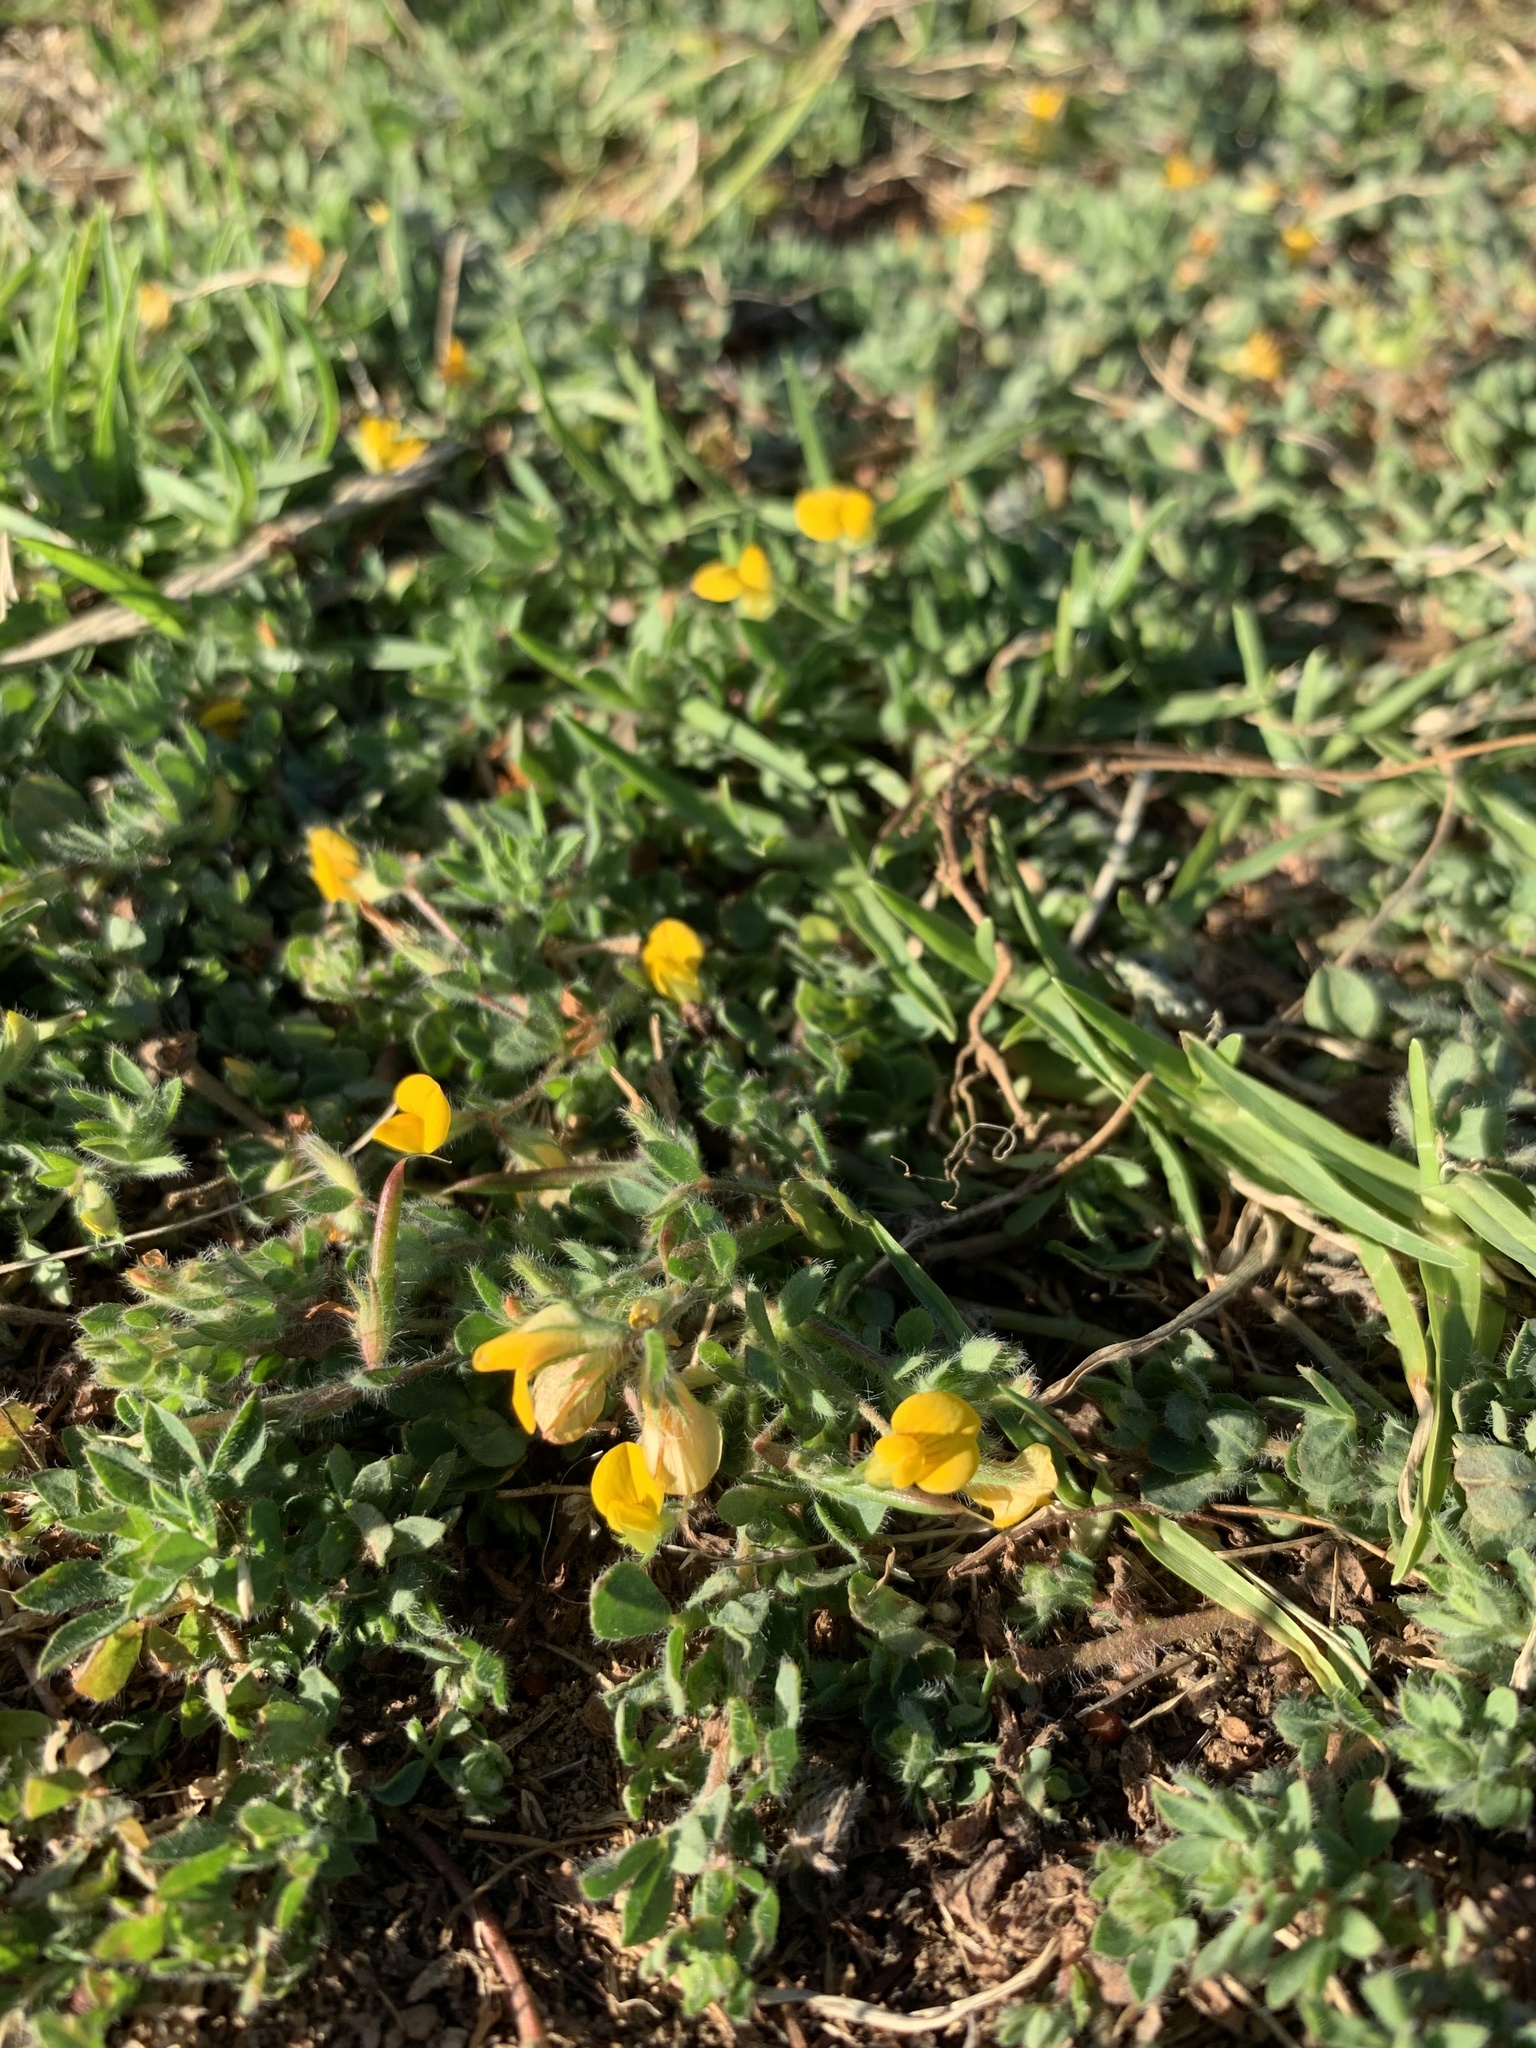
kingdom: Plantae
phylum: Tracheophyta
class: Magnoliopsida
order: Fabales
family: Fabaceae
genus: Lotus
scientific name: Lotus subbiflorus
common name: Hairy bird's-foot trefoil
